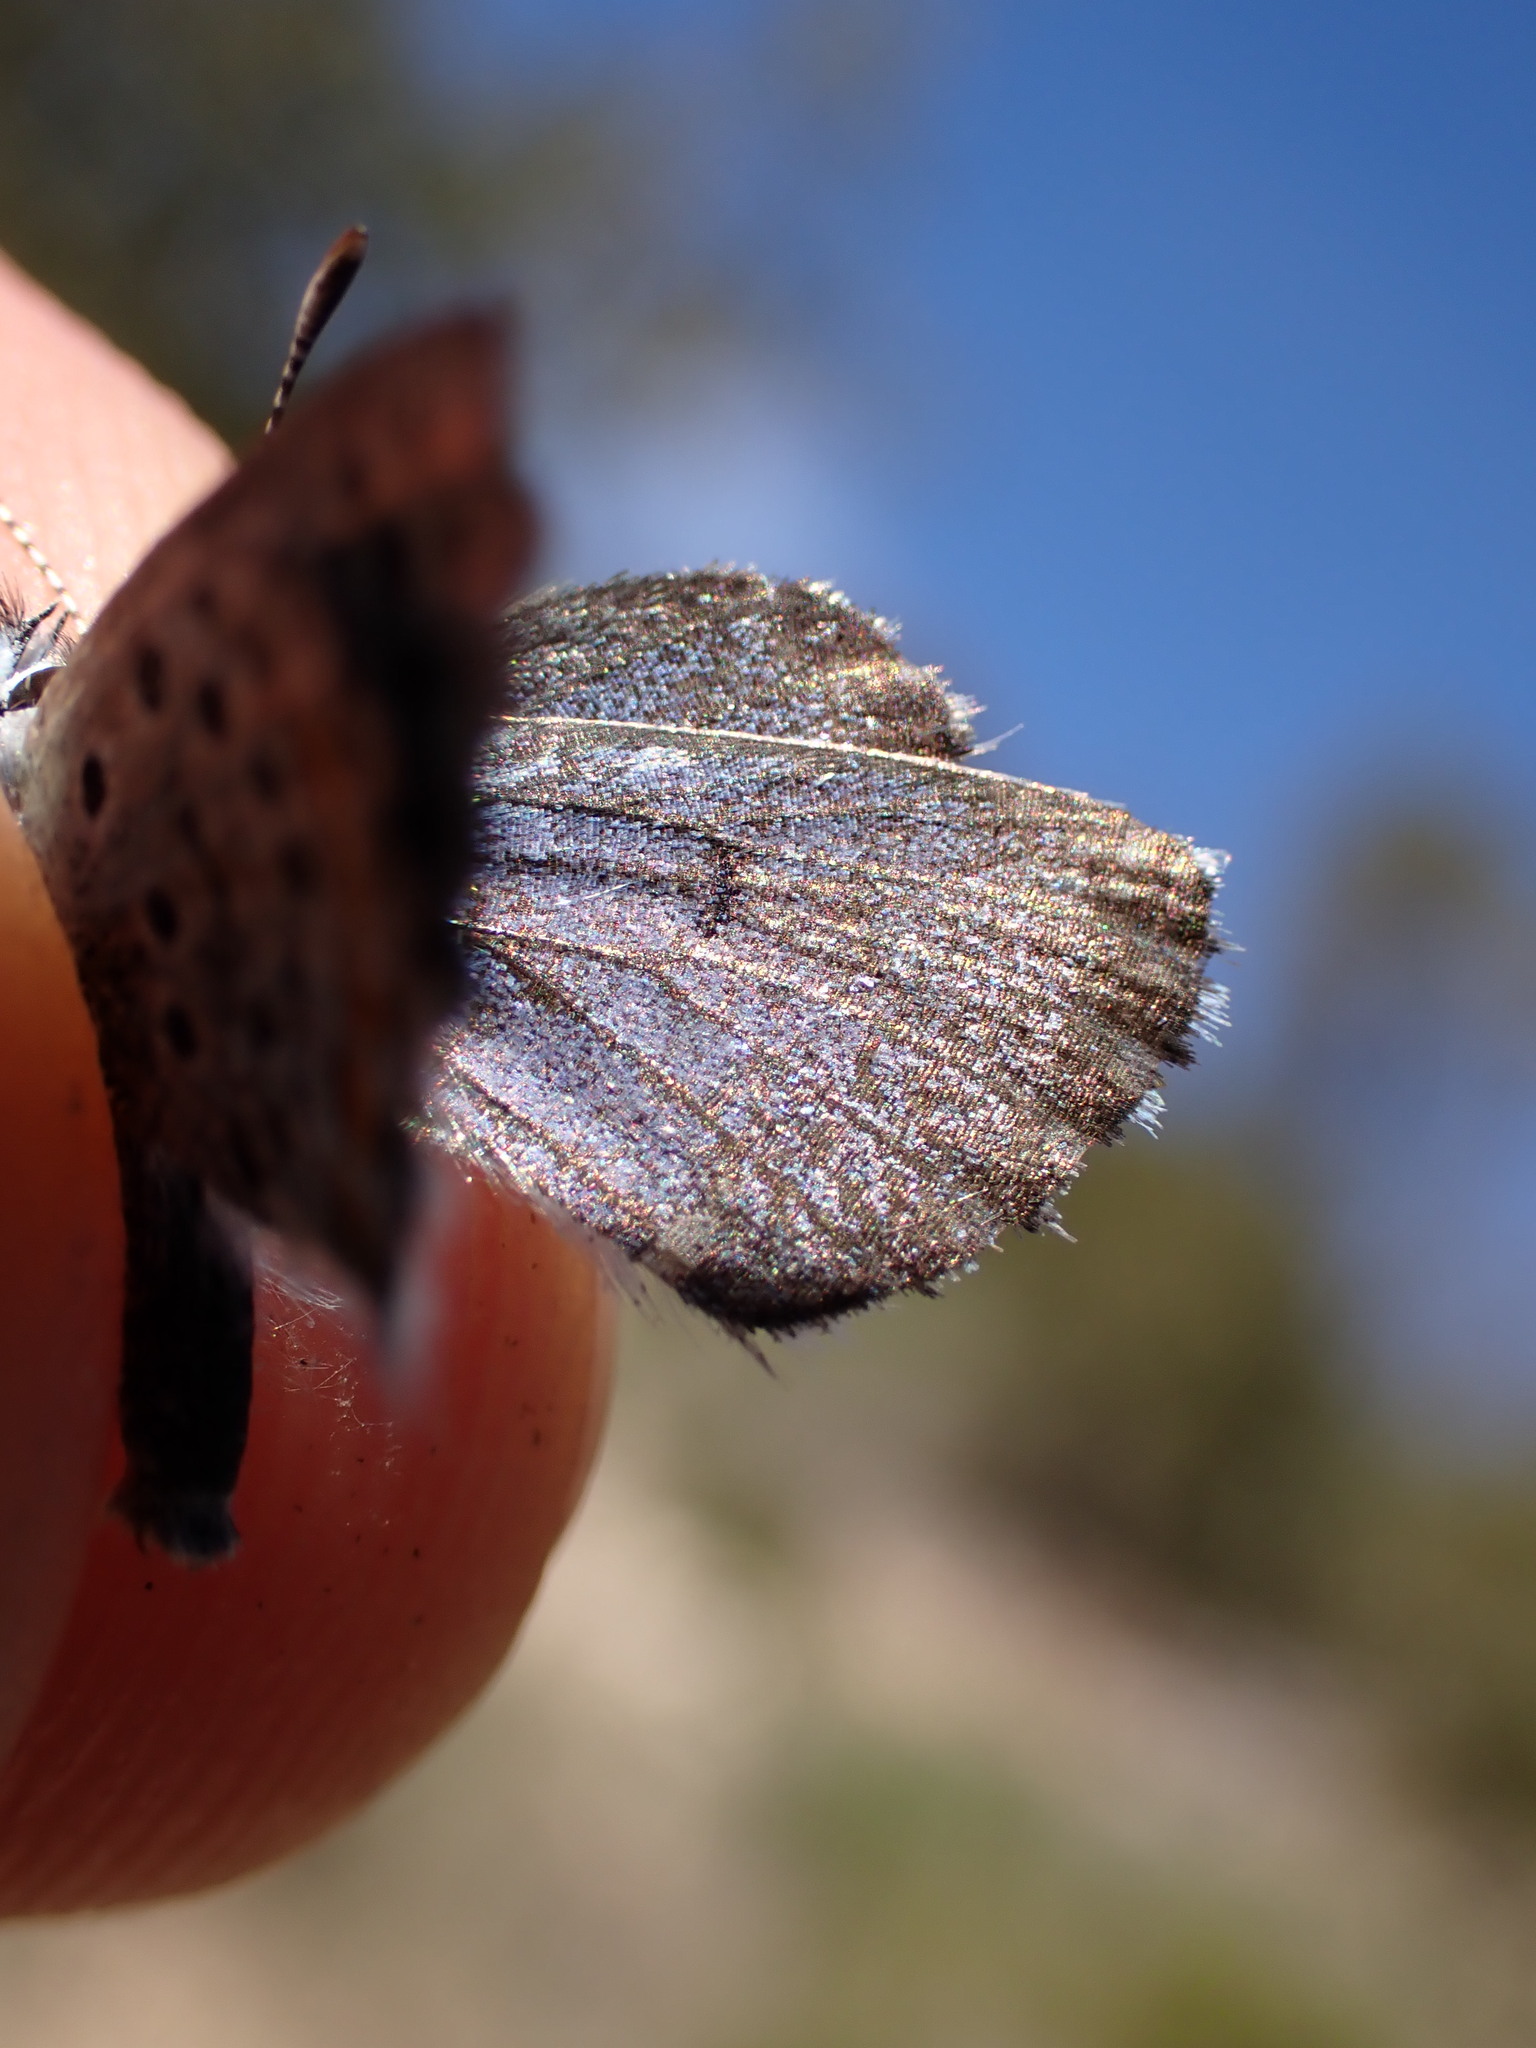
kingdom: Animalia
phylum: Arthropoda
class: Insecta
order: Lepidoptera
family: Lycaenidae
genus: Pseudophilotes
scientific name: Pseudophilotes baton
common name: Baton blue
